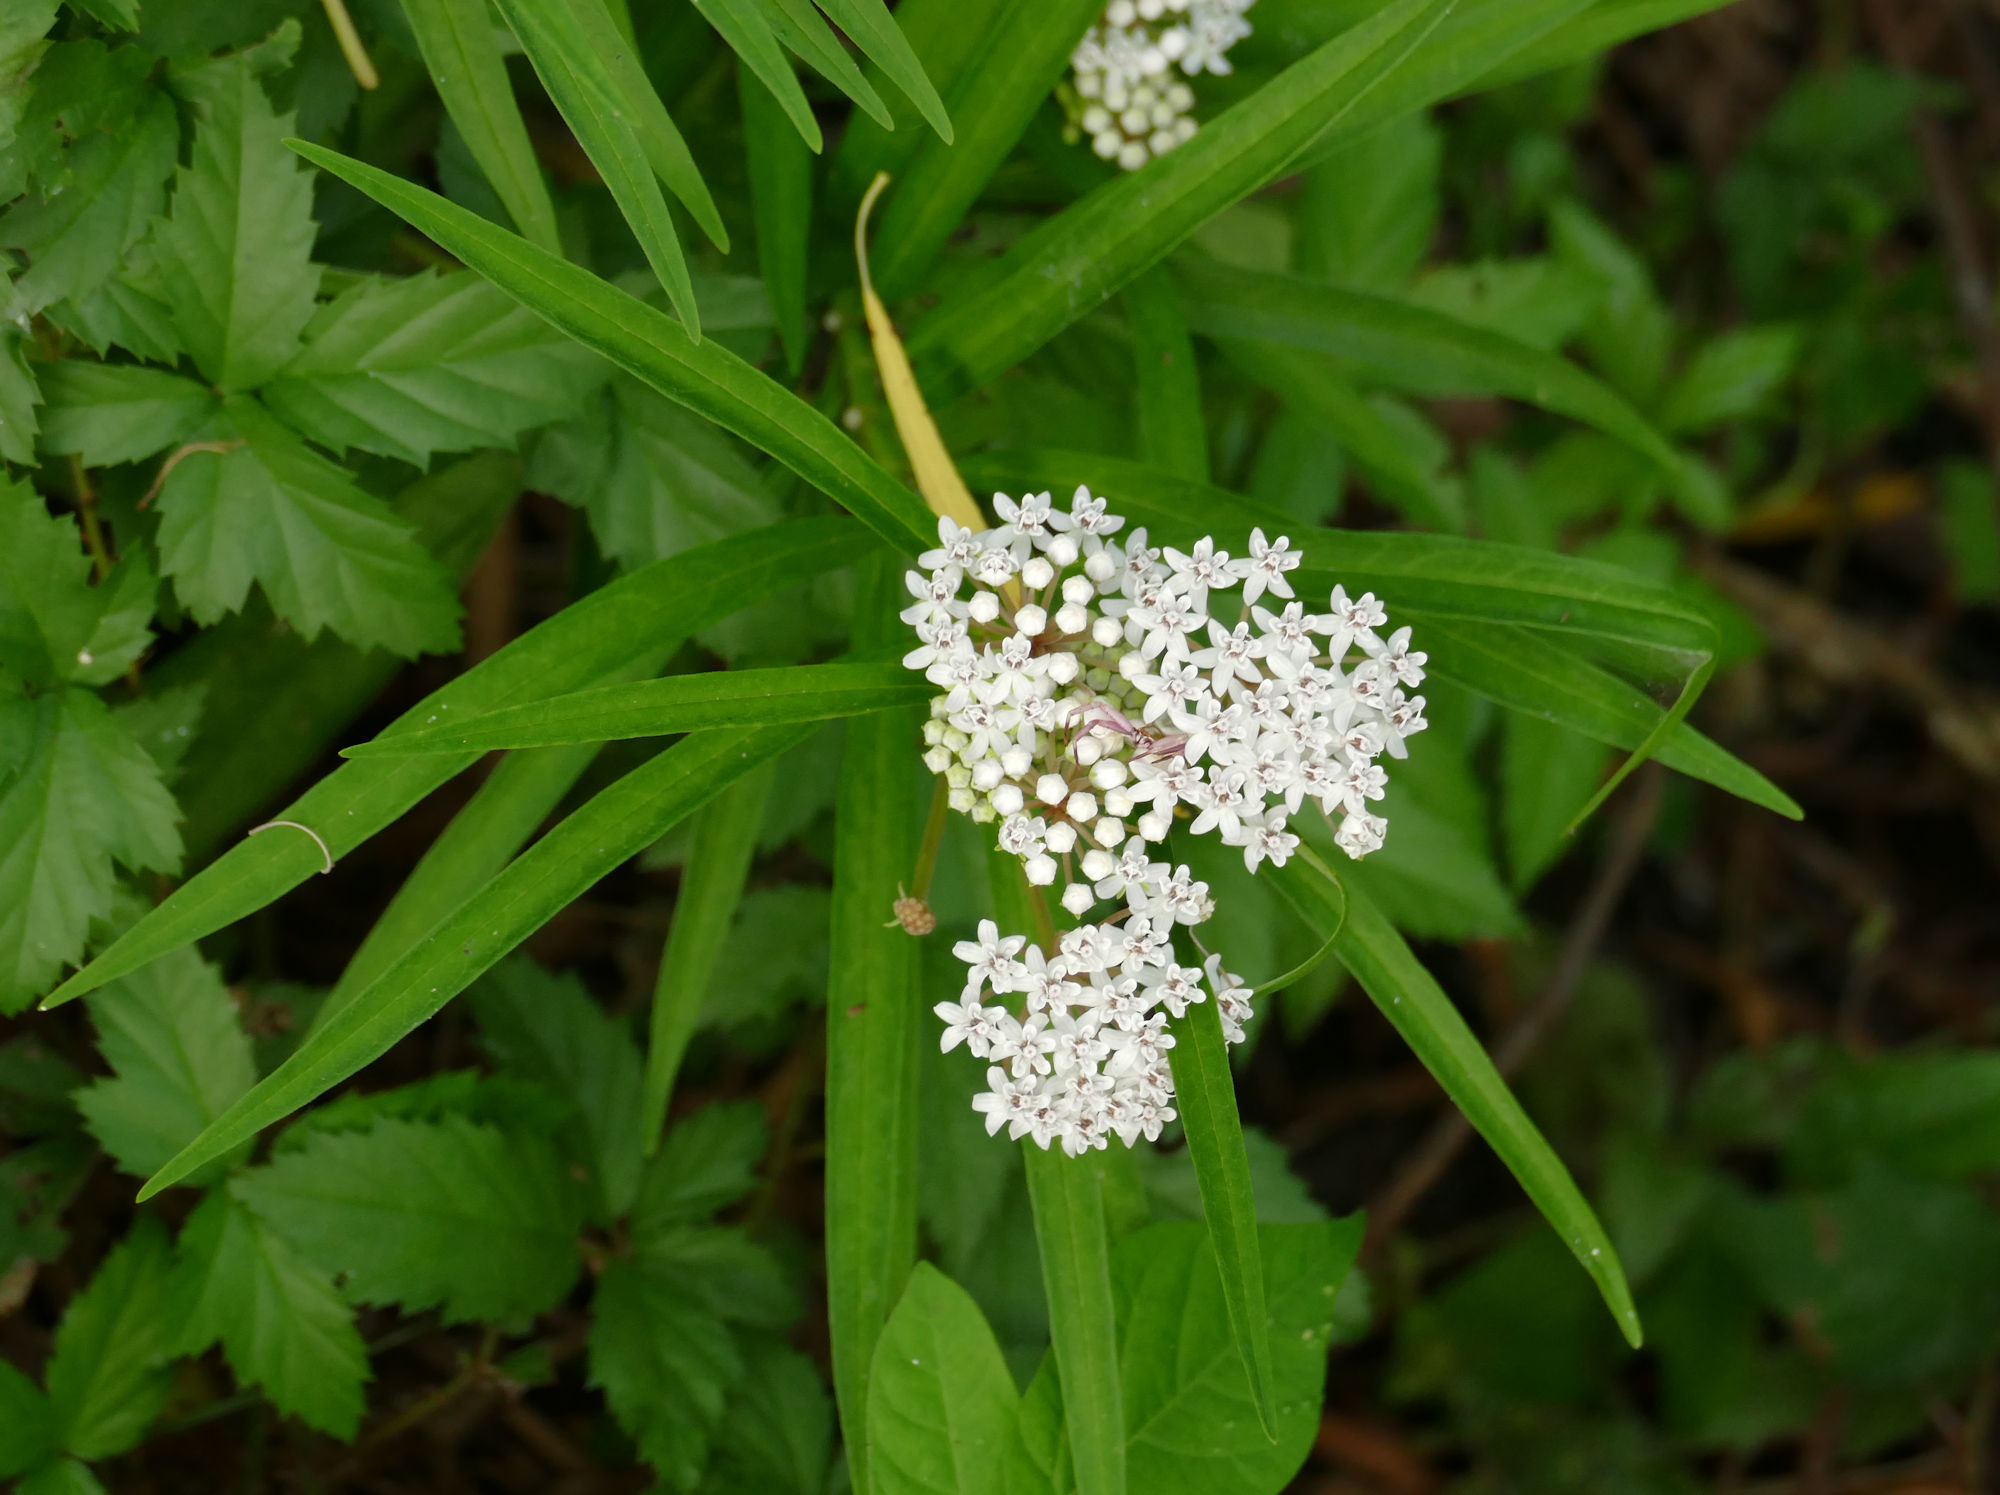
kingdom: Plantae
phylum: Tracheophyta
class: Magnoliopsida
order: Gentianales
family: Apocynaceae
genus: Asclepias
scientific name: Asclepias perennis
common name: Smooth-seed milkweed
